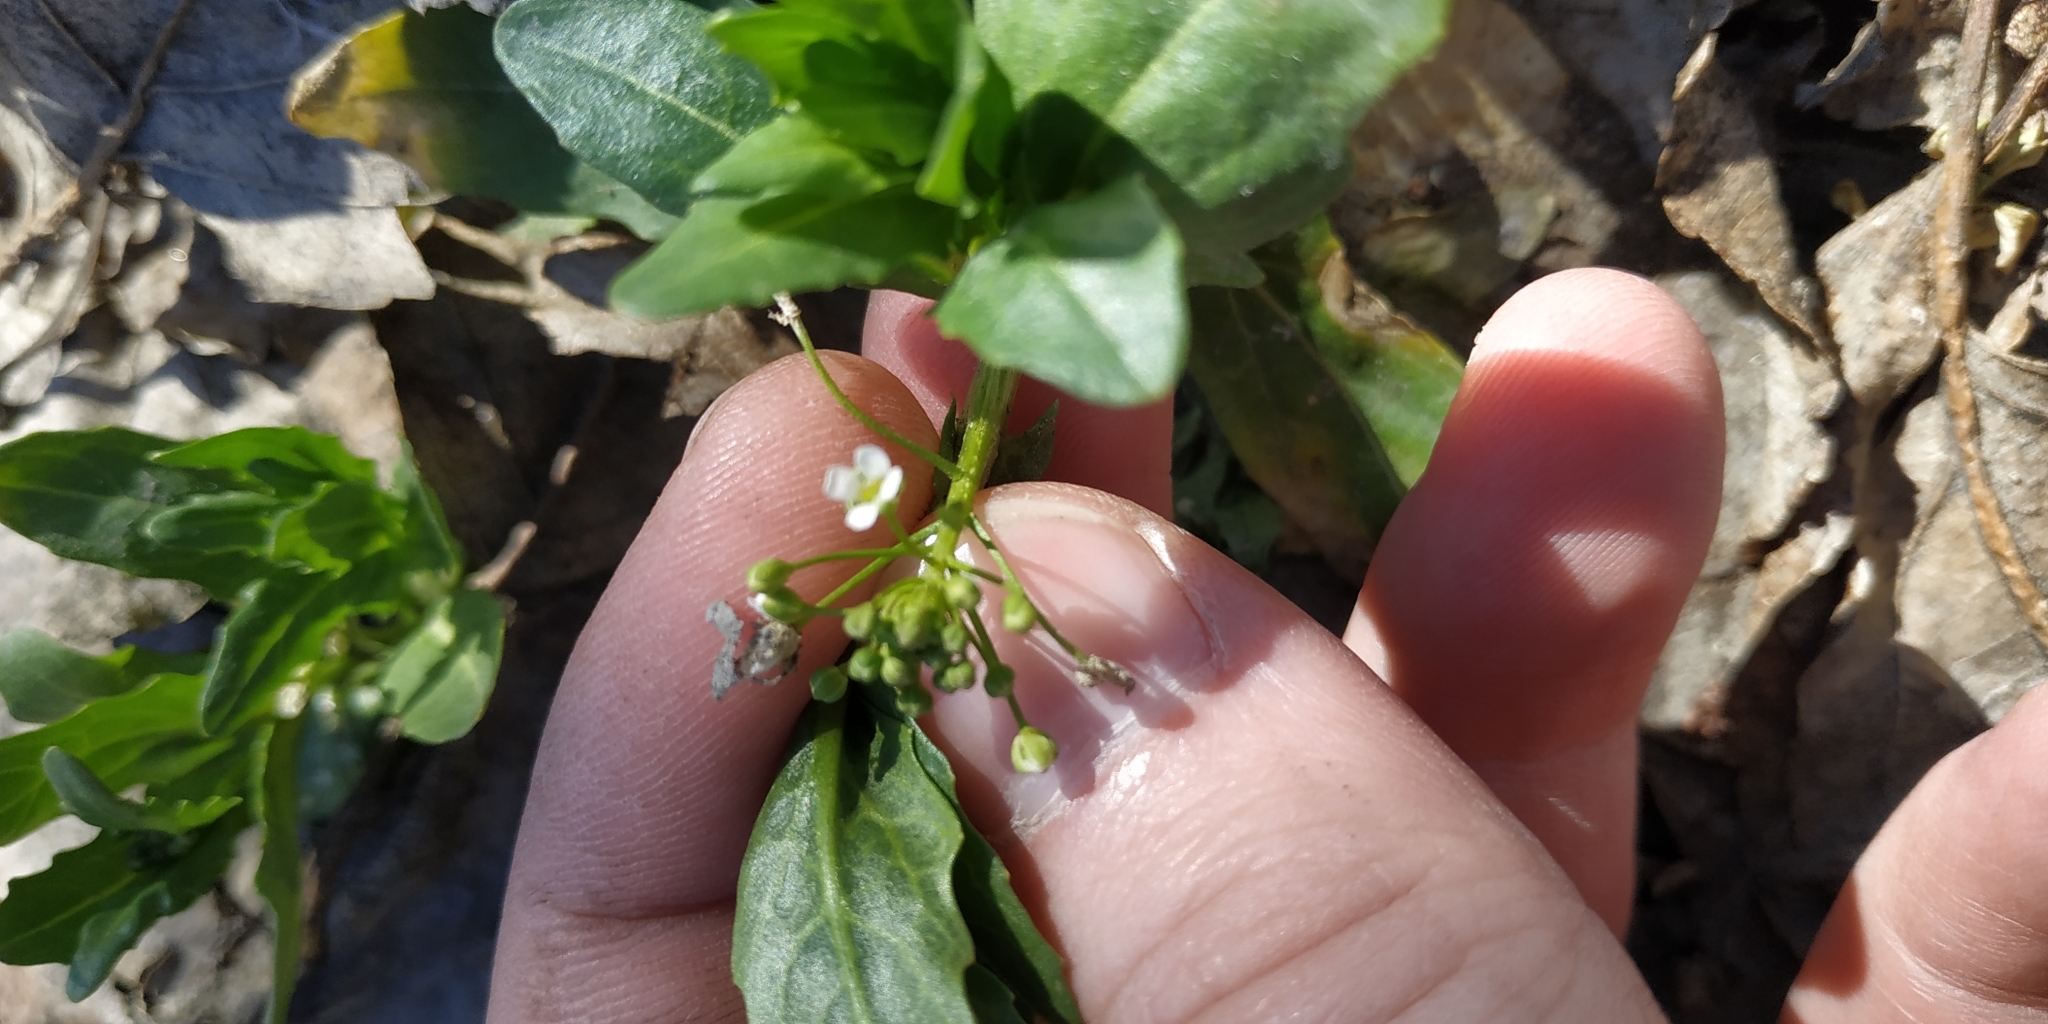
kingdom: Plantae
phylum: Tracheophyta
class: Magnoliopsida
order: Brassicales
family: Brassicaceae
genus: Thlaspi
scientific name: Thlaspi arvense
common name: Field pennycress
